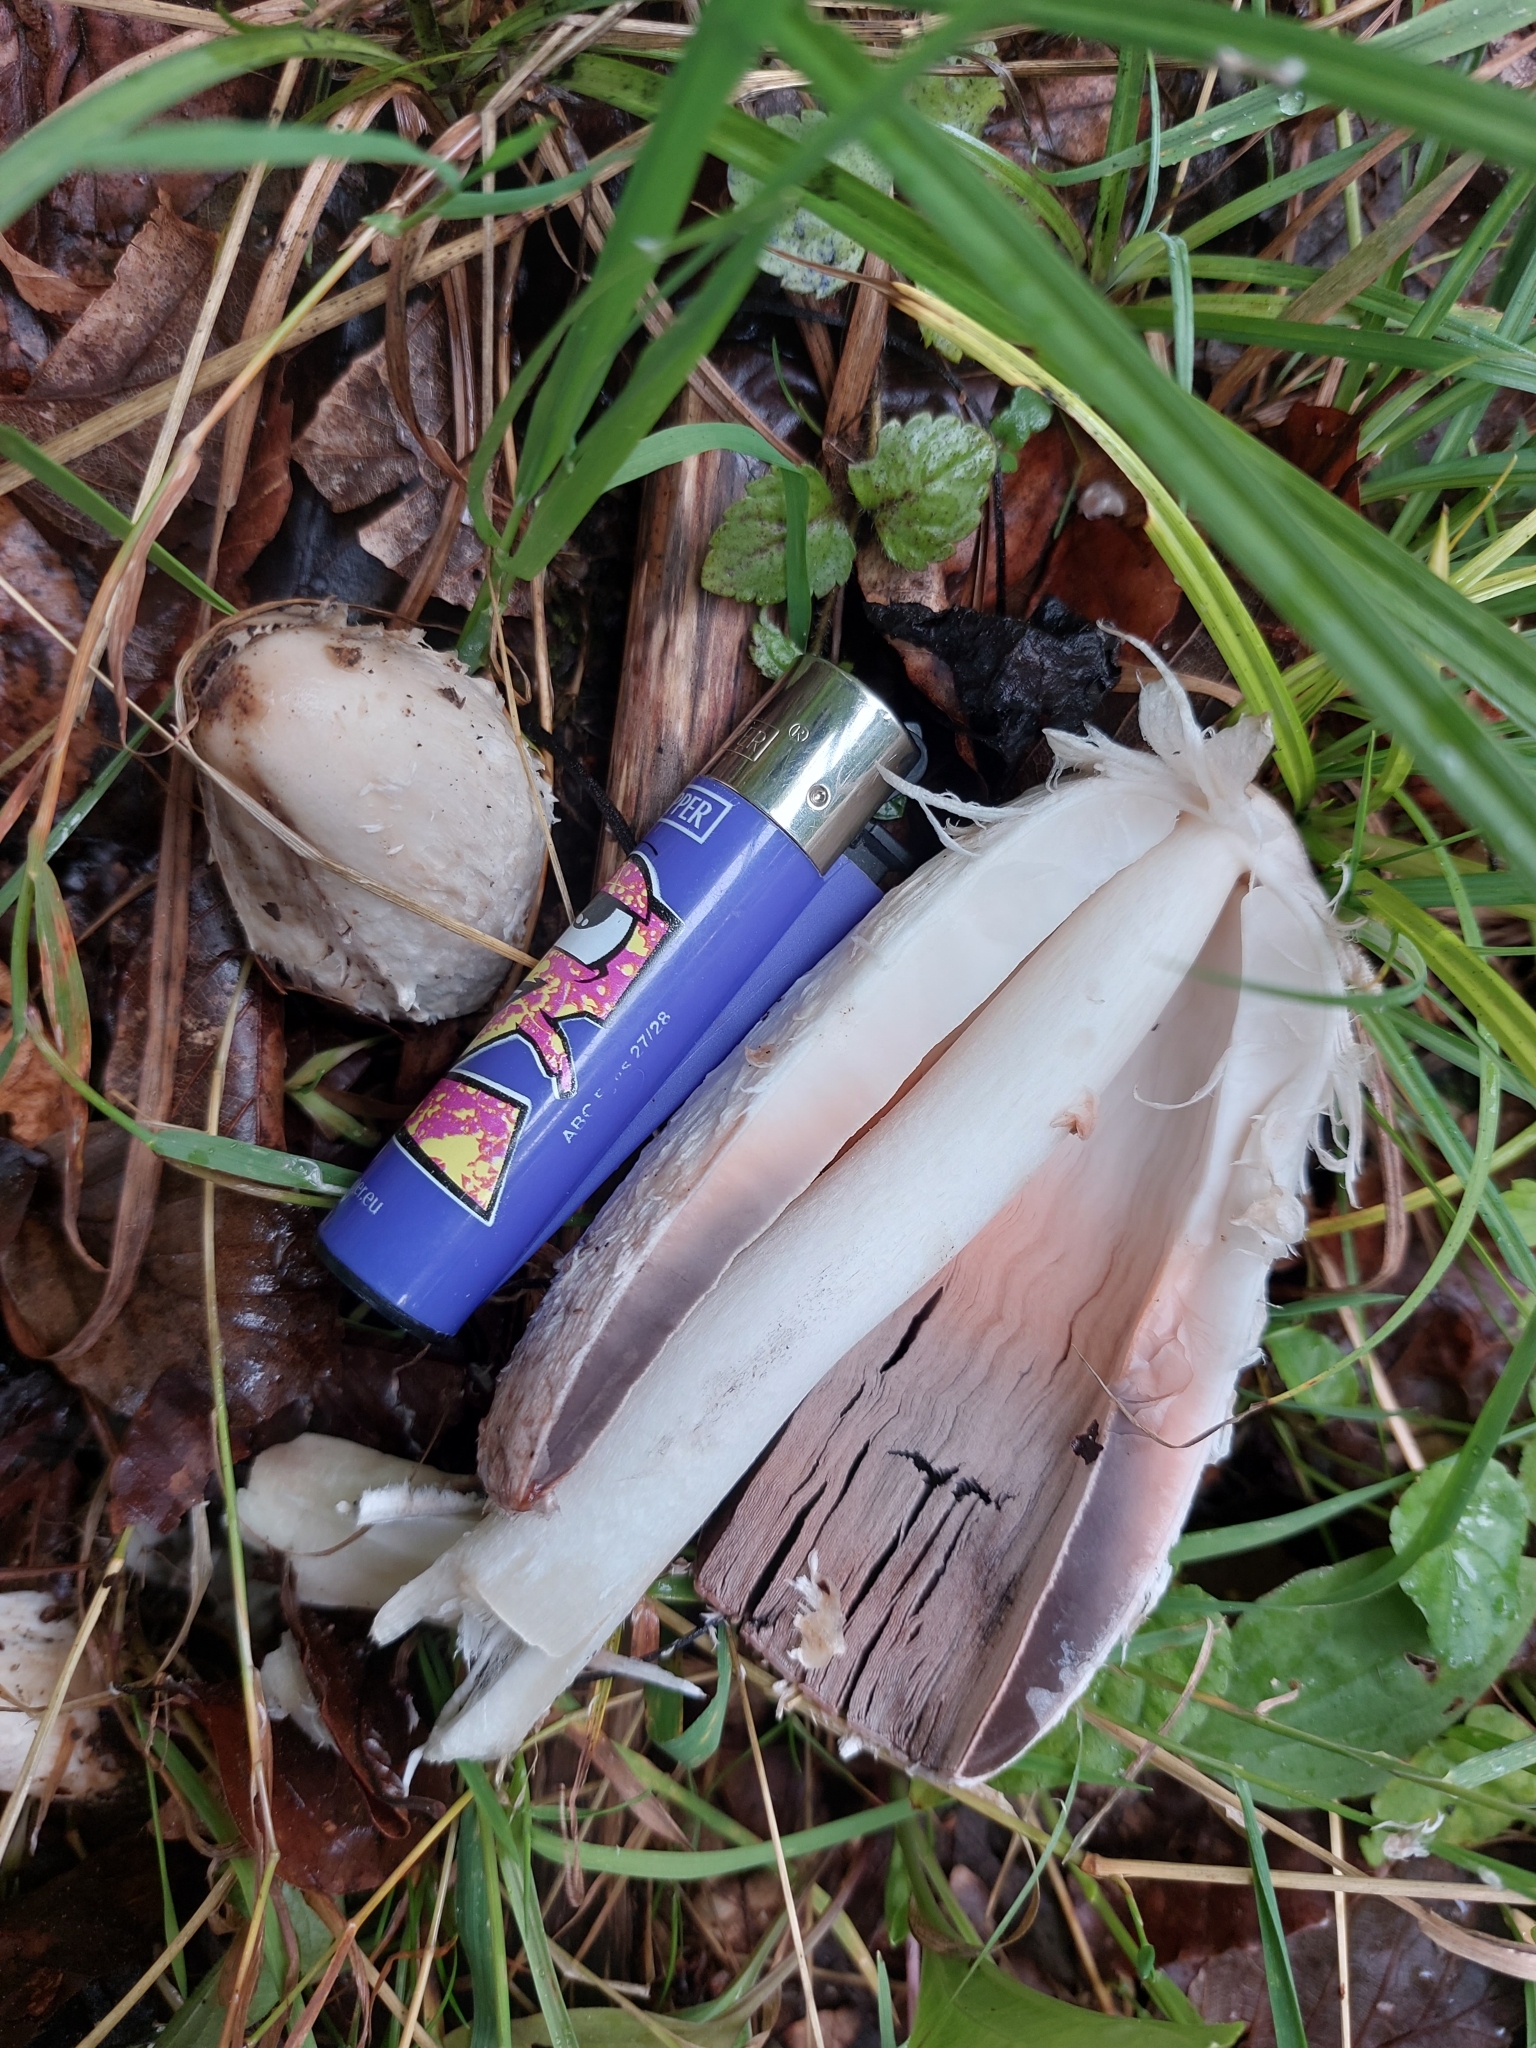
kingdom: Fungi
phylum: Basidiomycota
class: Agaricomycetes
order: Agaricales
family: Agaricaceae
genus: Coprinus
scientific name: Coprinus comatus
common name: Lawyer's wig
